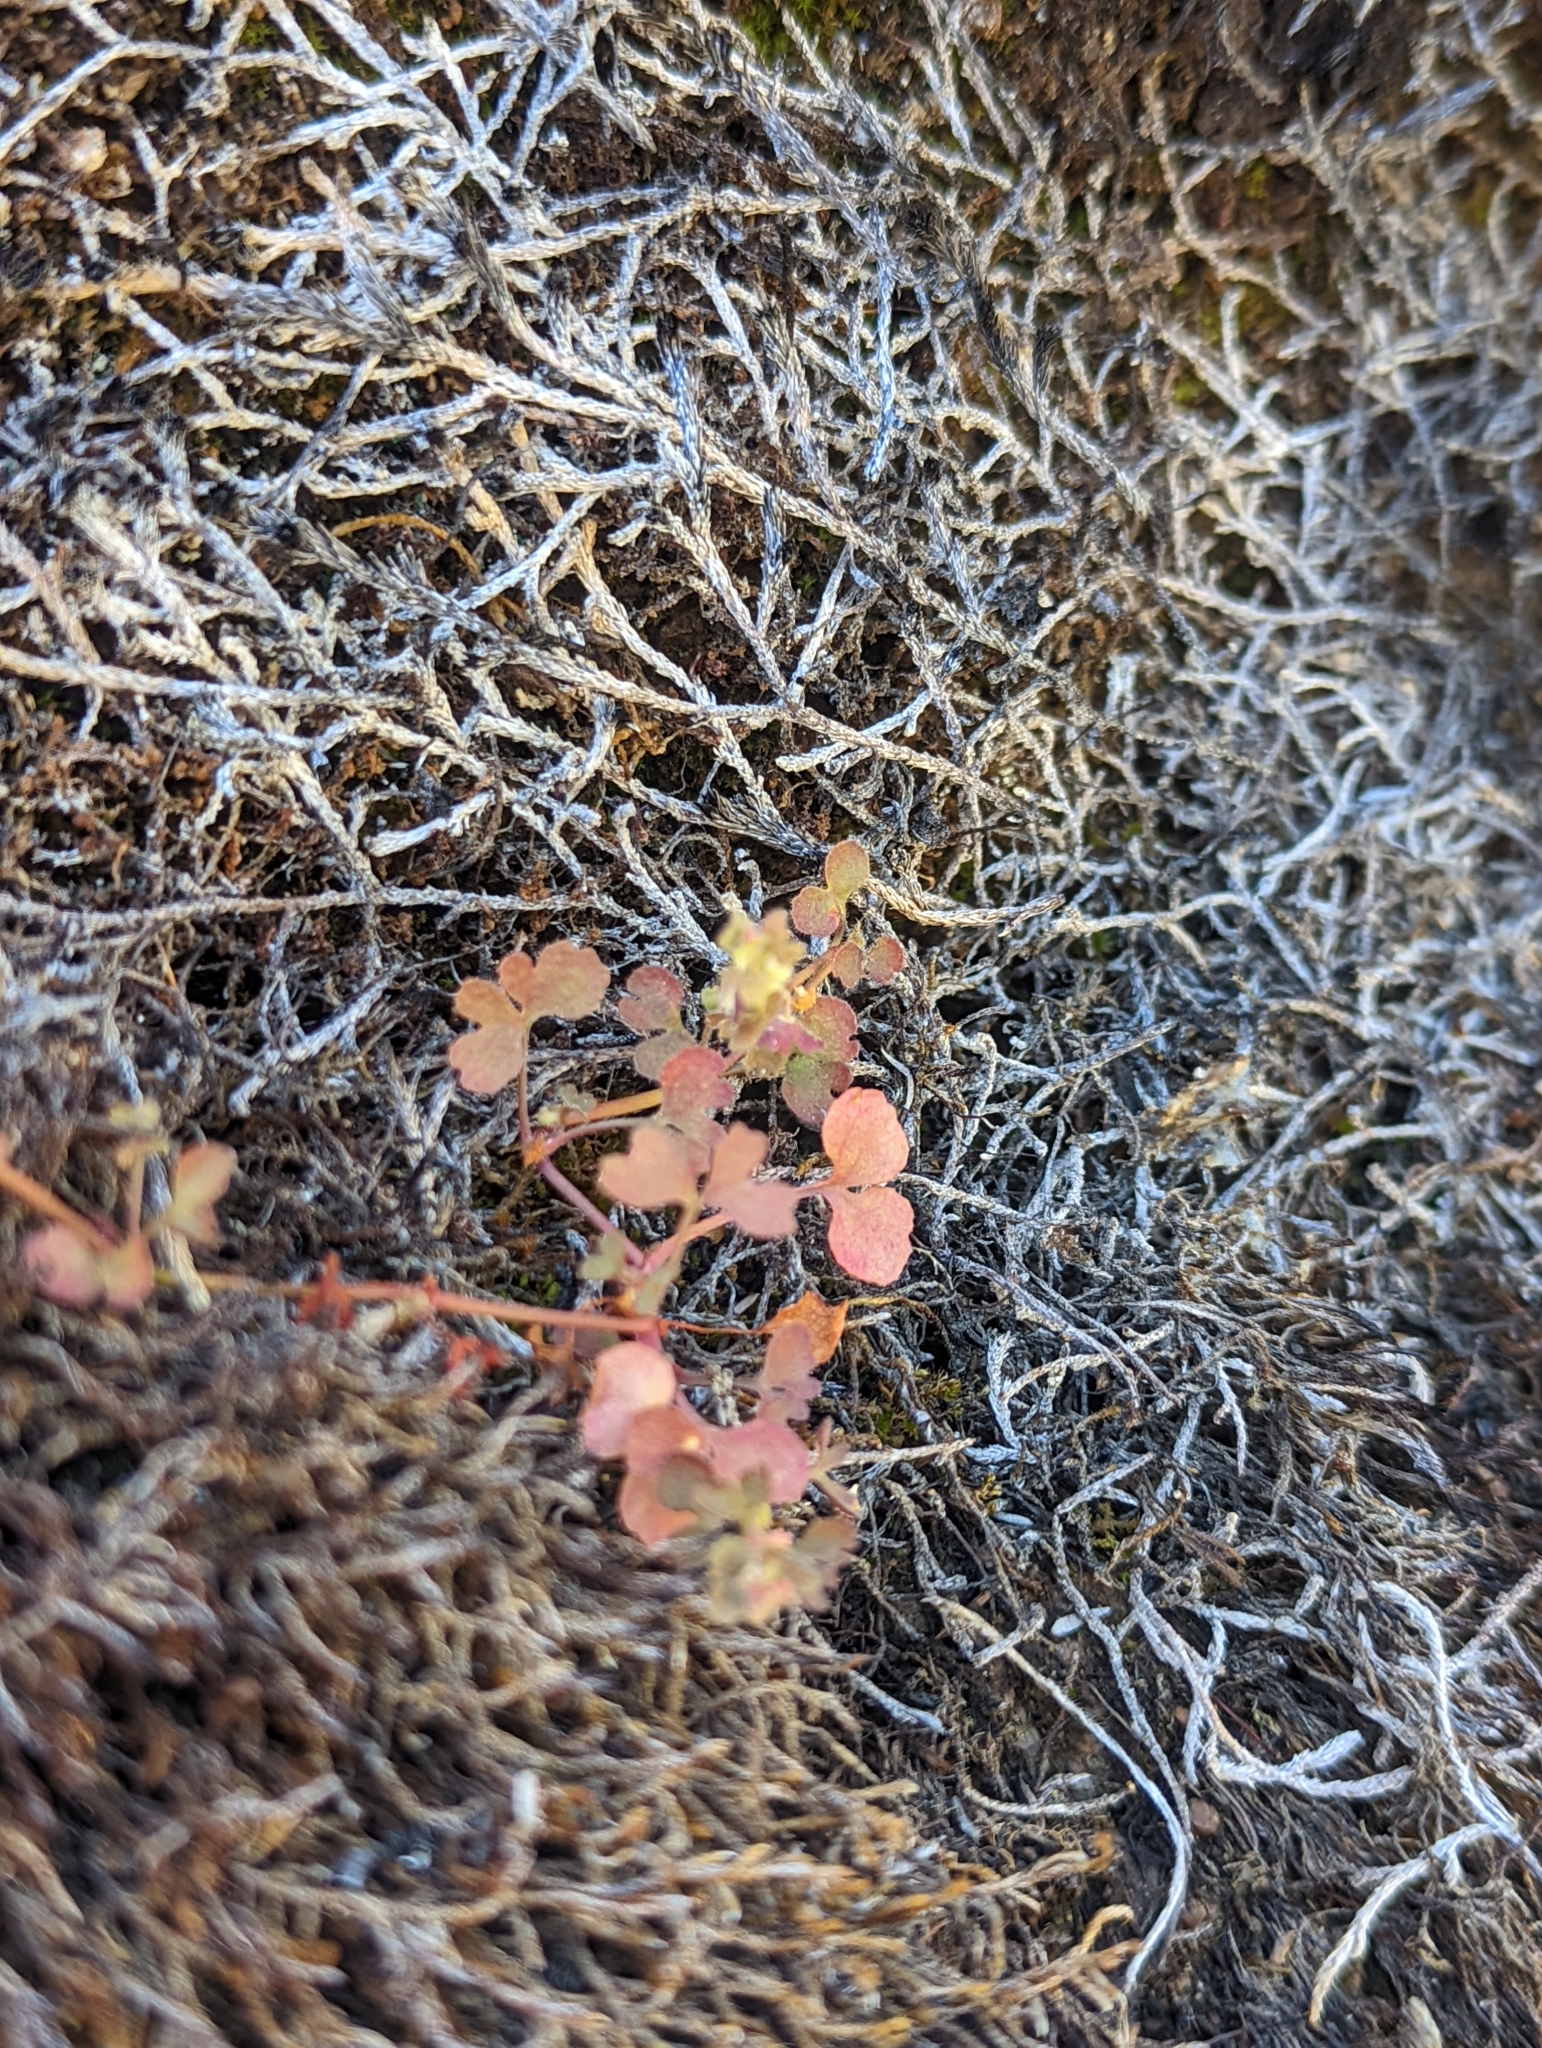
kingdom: Plantae
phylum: Tracheophyta
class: Magnoliopsida
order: Caryophyllales
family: Polygonaceae
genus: Pterostegia
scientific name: Pterostegia drymarioides
